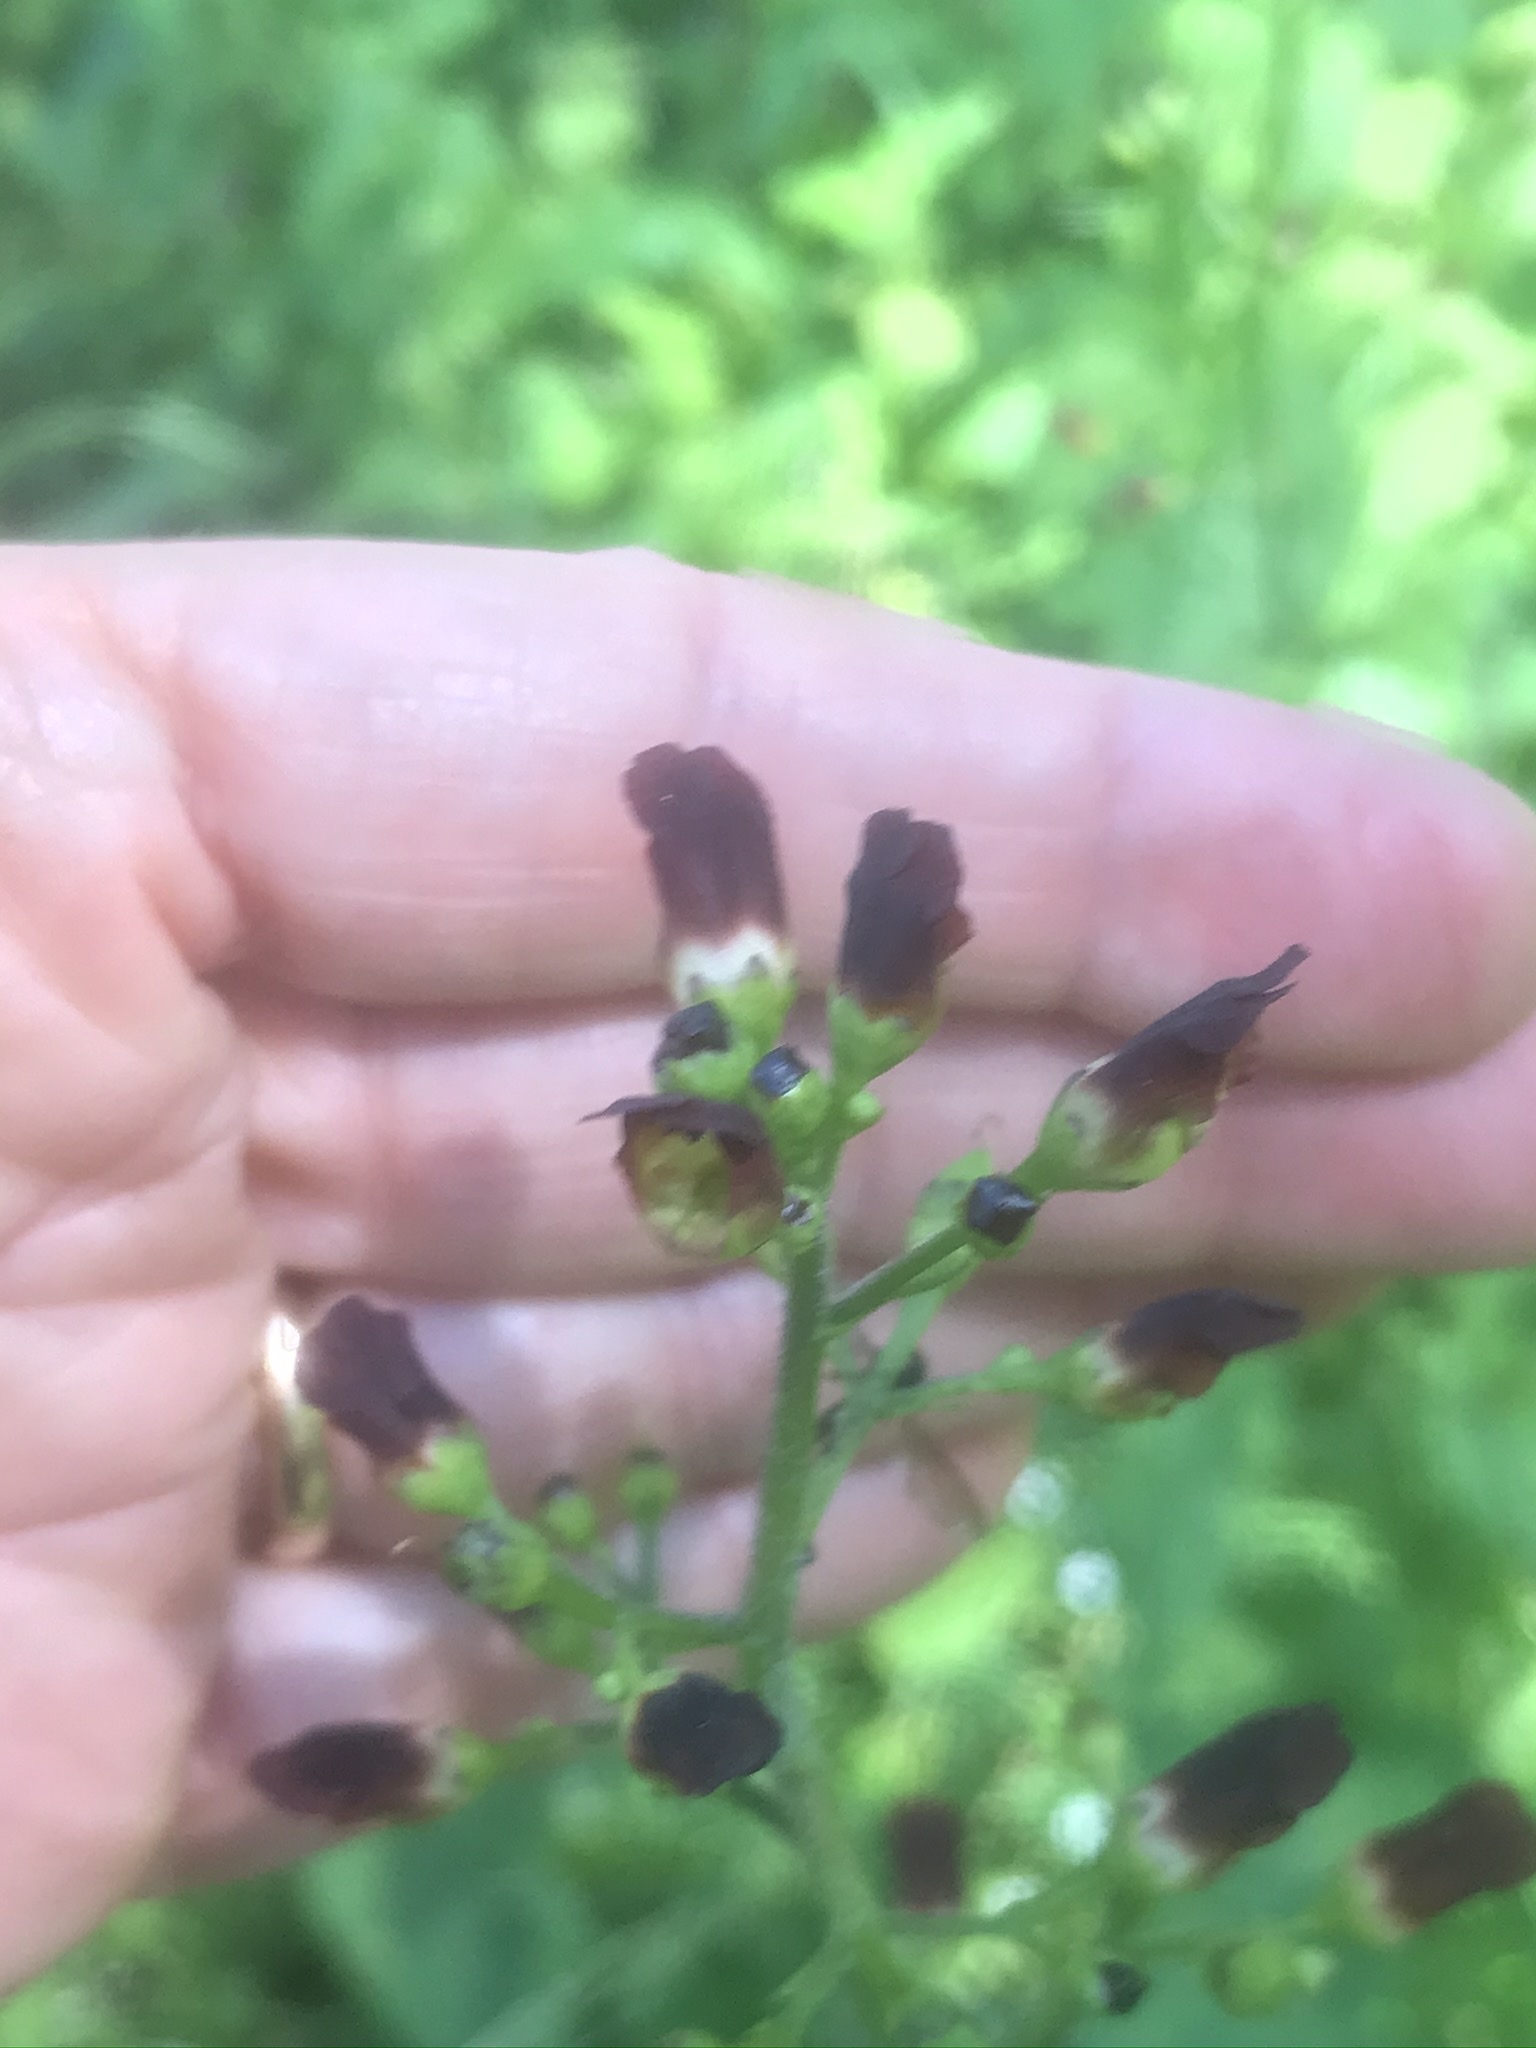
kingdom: Plantae
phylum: Tracheophyta
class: Magnoliopsida
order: Lamiales
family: Scrophulariaceae
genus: Scrophularia
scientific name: Scrophularia californica
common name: California figwort
